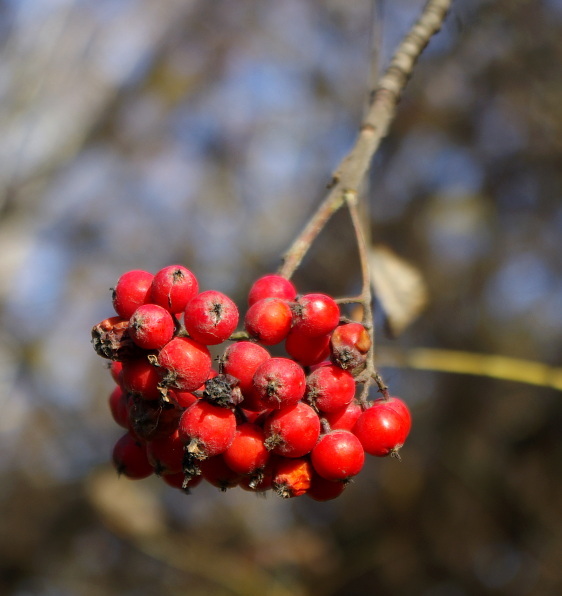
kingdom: Plantae
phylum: Tracheophyta
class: Magnoliopsida
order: Rosales
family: Rosaceae
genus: Sorbus
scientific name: Sorbus aucuparia
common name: Rowan
